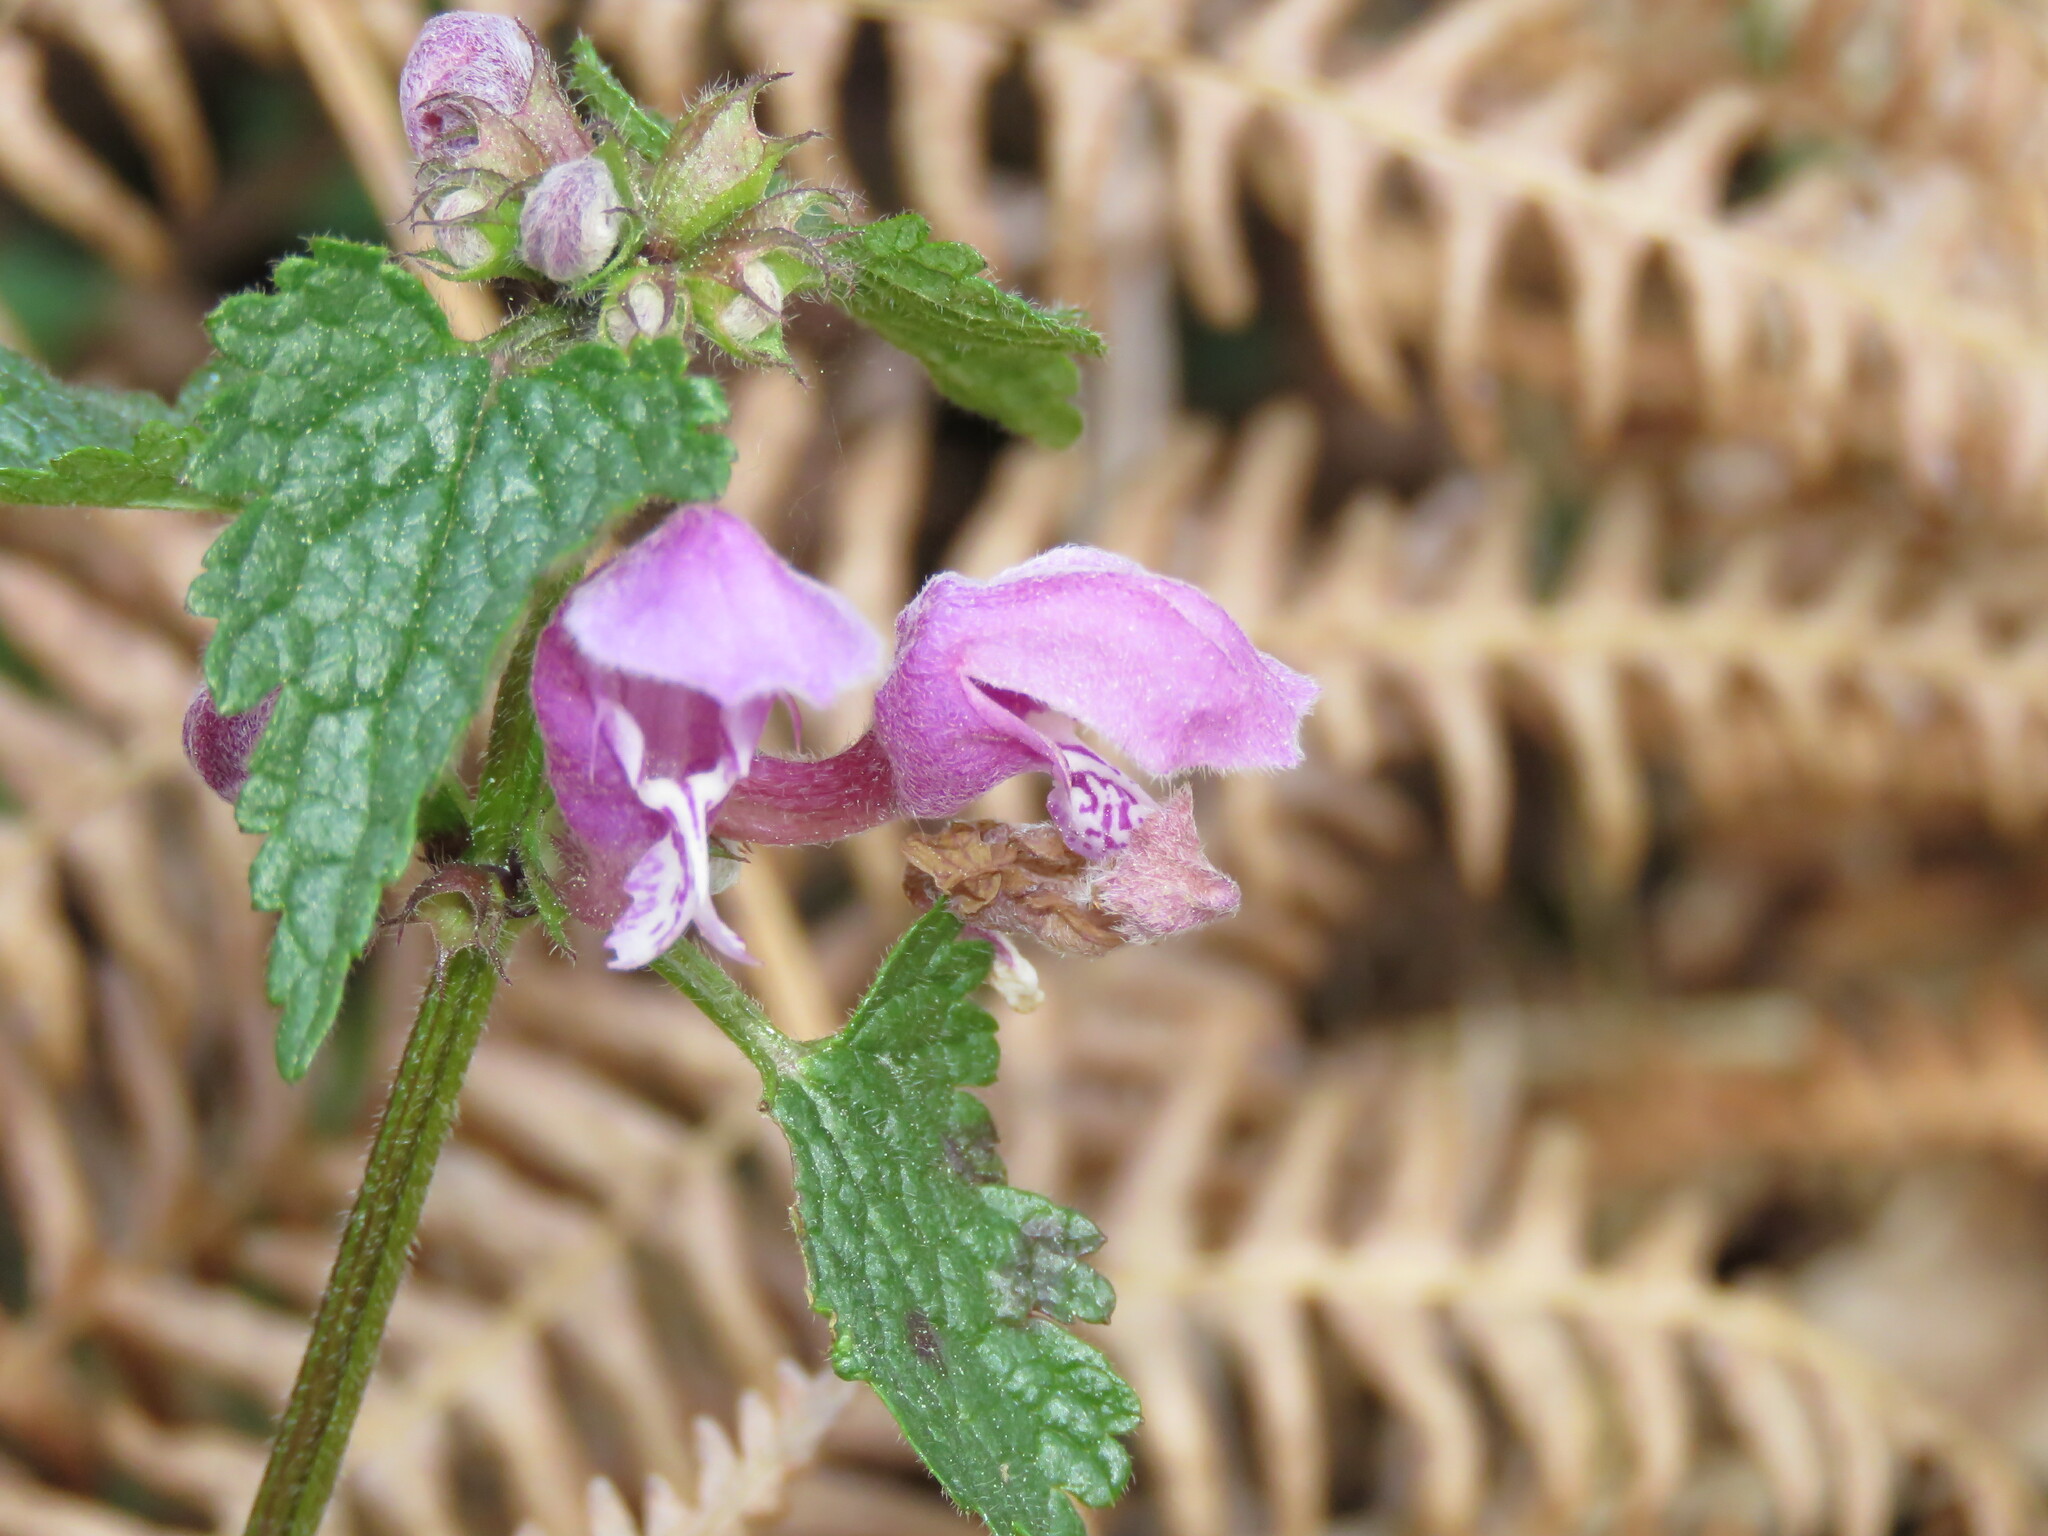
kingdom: Plantae
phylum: Tracheophyta
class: Magnoliopsida
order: Lamiales
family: Lamiaceae
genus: Lamium
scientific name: Lamium maculatum
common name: Spotted dead-nettle
